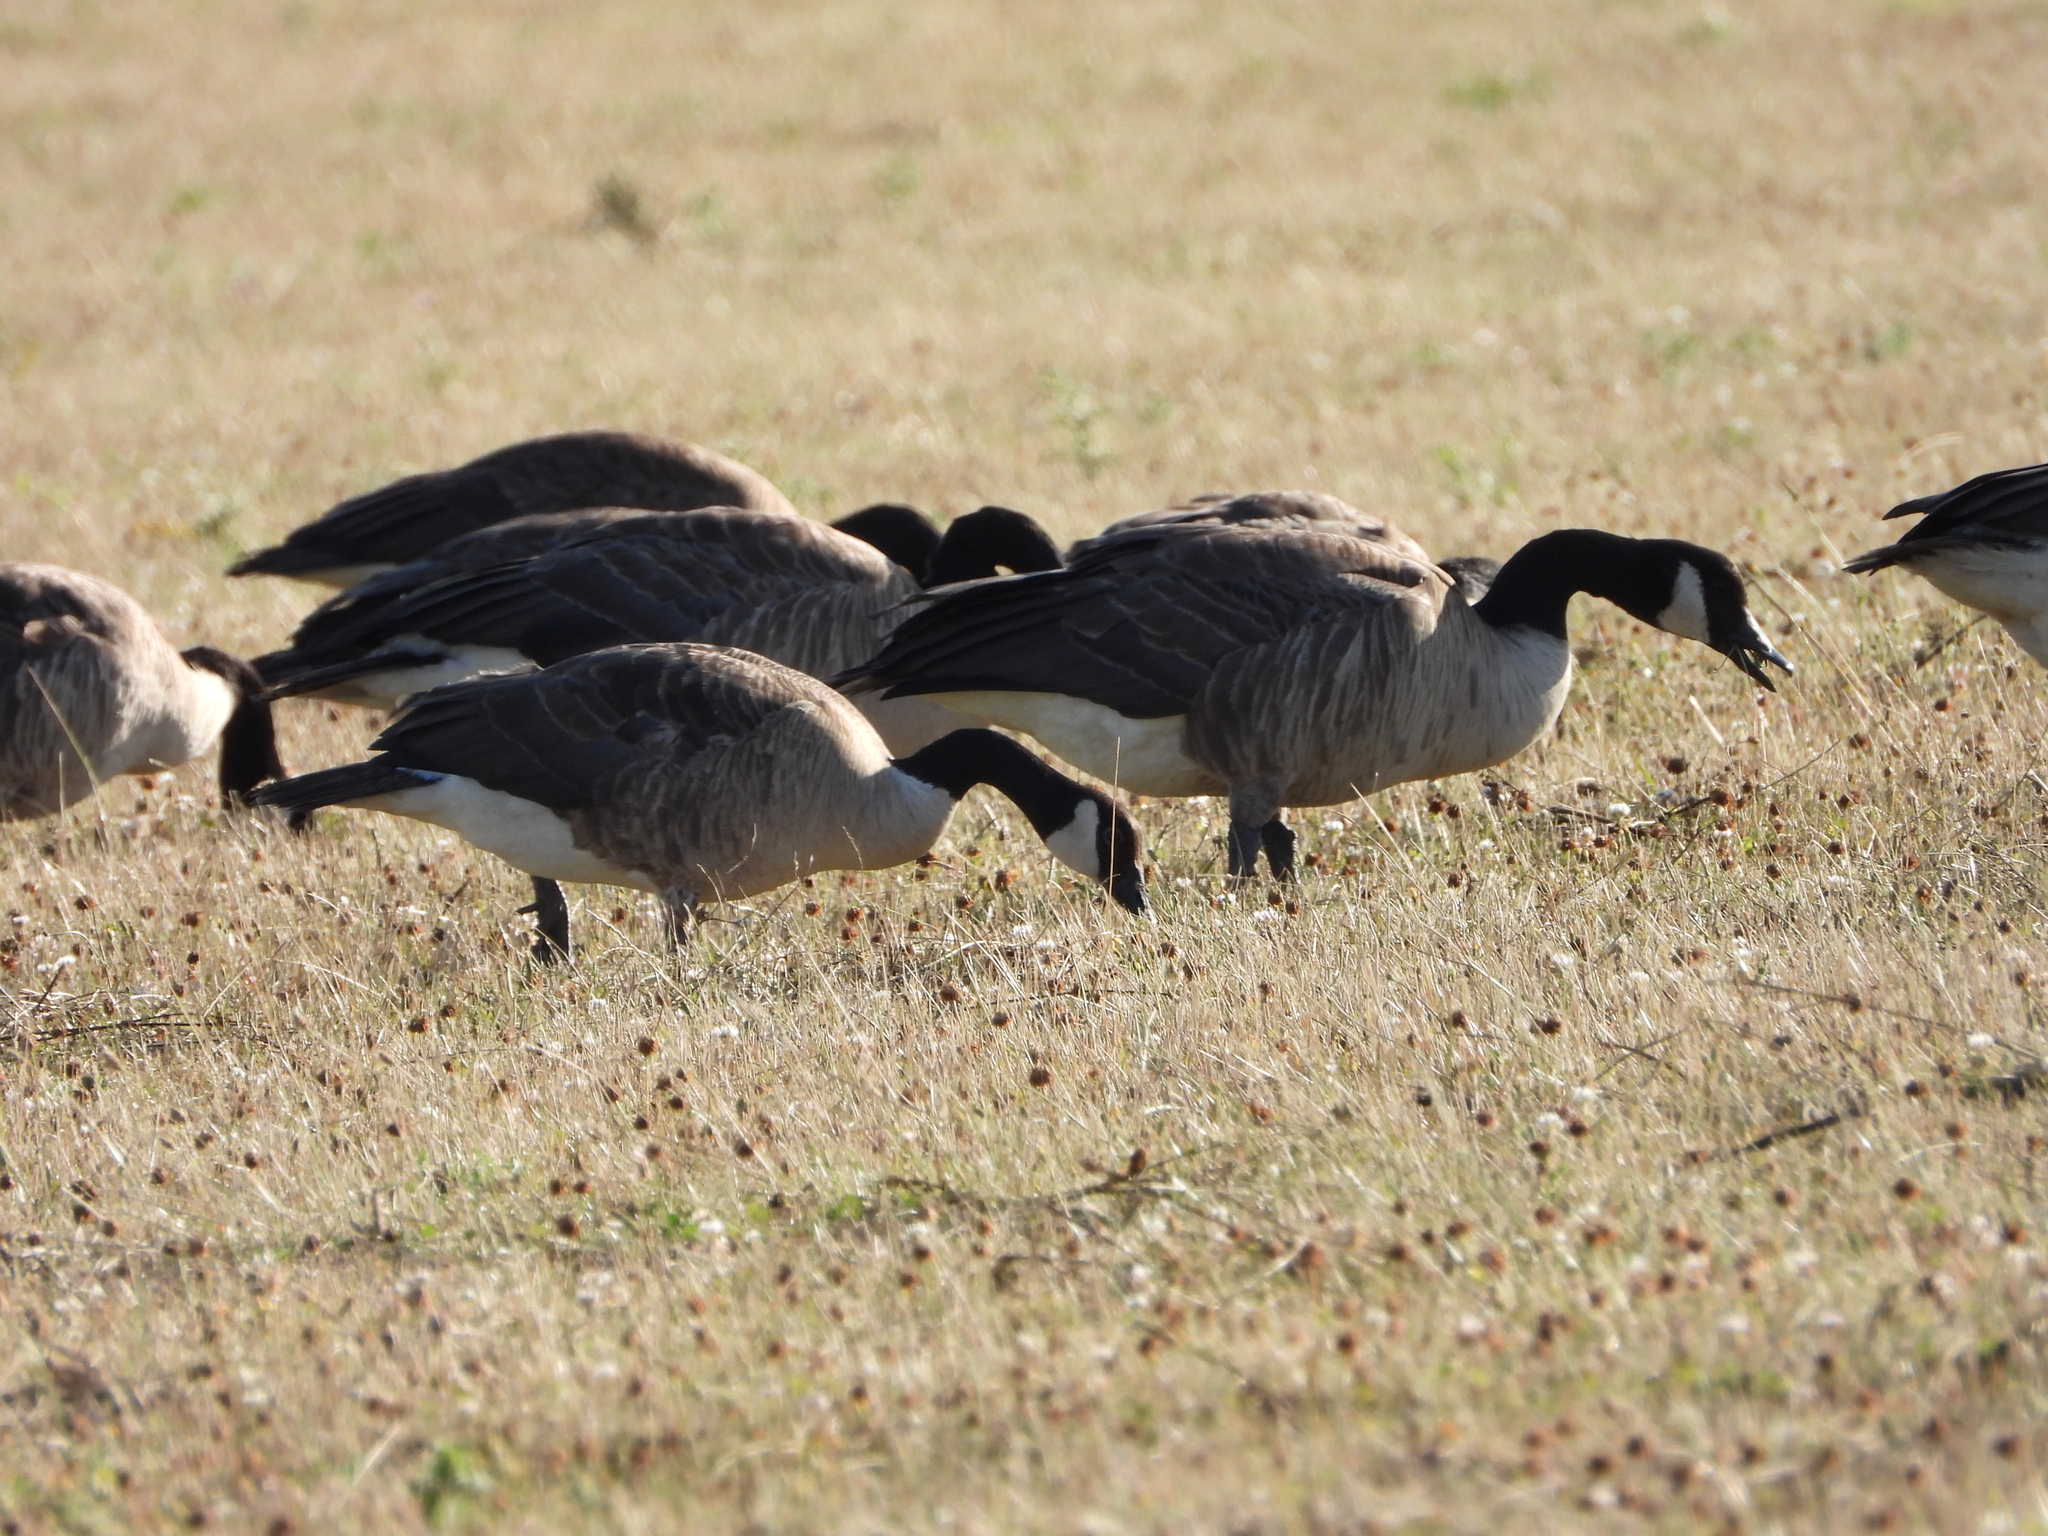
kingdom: Animalia
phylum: Chordata
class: Aves
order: Anseriformes
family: Anatidae
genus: Branta
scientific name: Branta canadensis
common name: Canada goose
